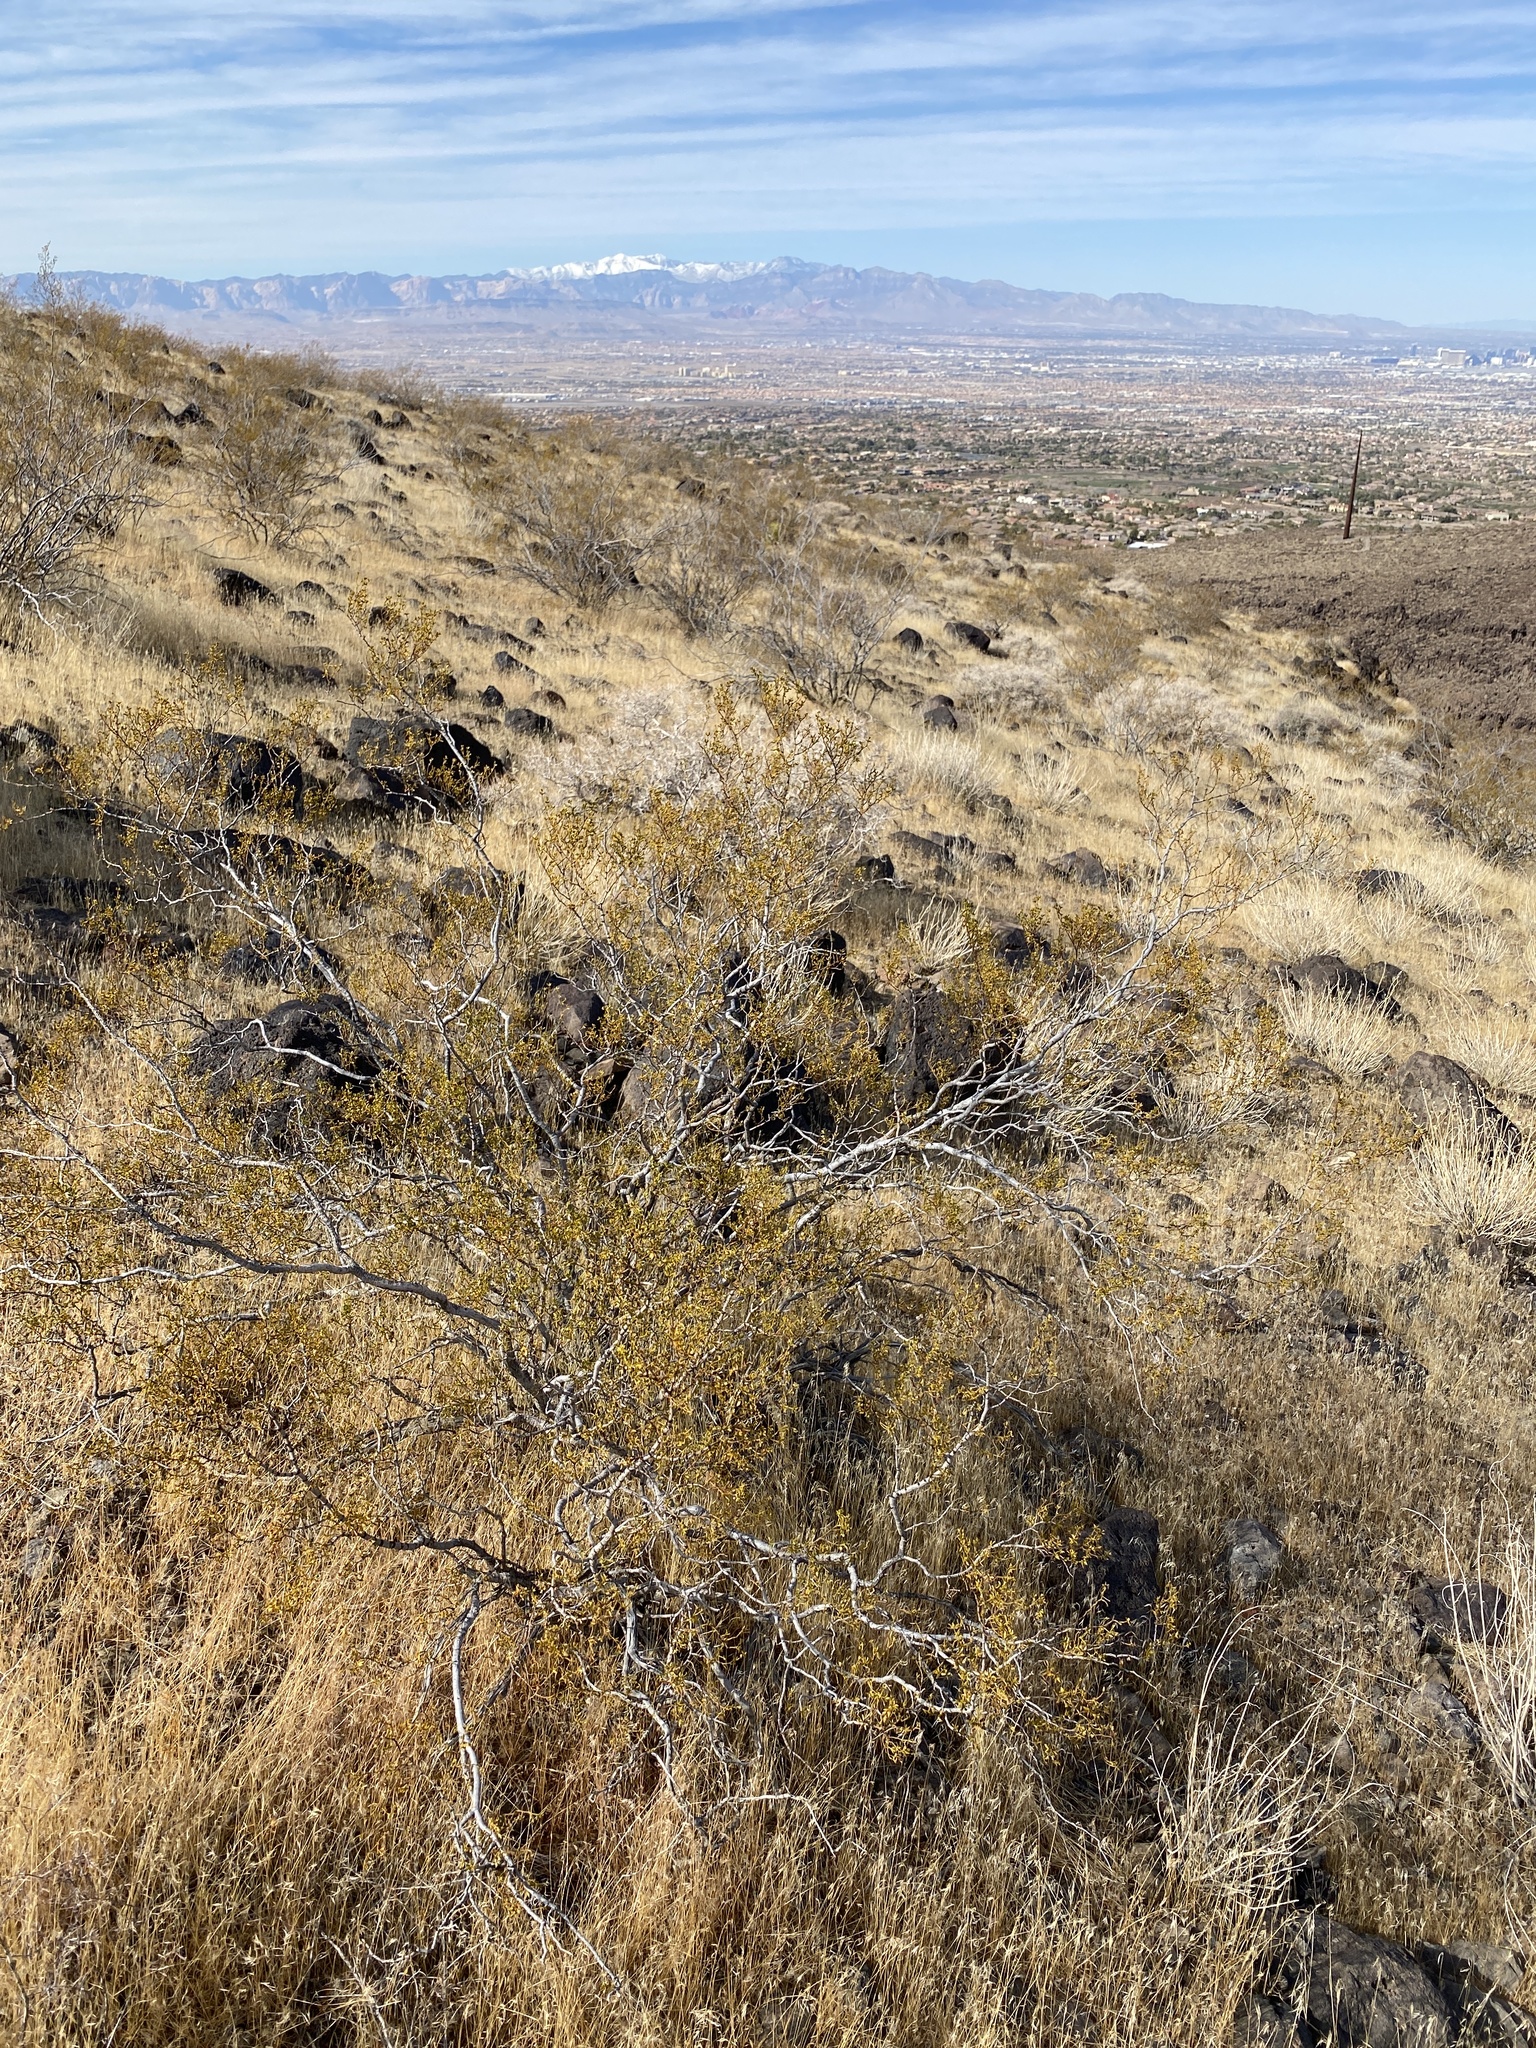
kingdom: Plantae
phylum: Tracheophyta
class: Magnoliopsida
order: Zygophyllales
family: Zygophyllaceae
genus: Larrea
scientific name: Larrea tridentata
